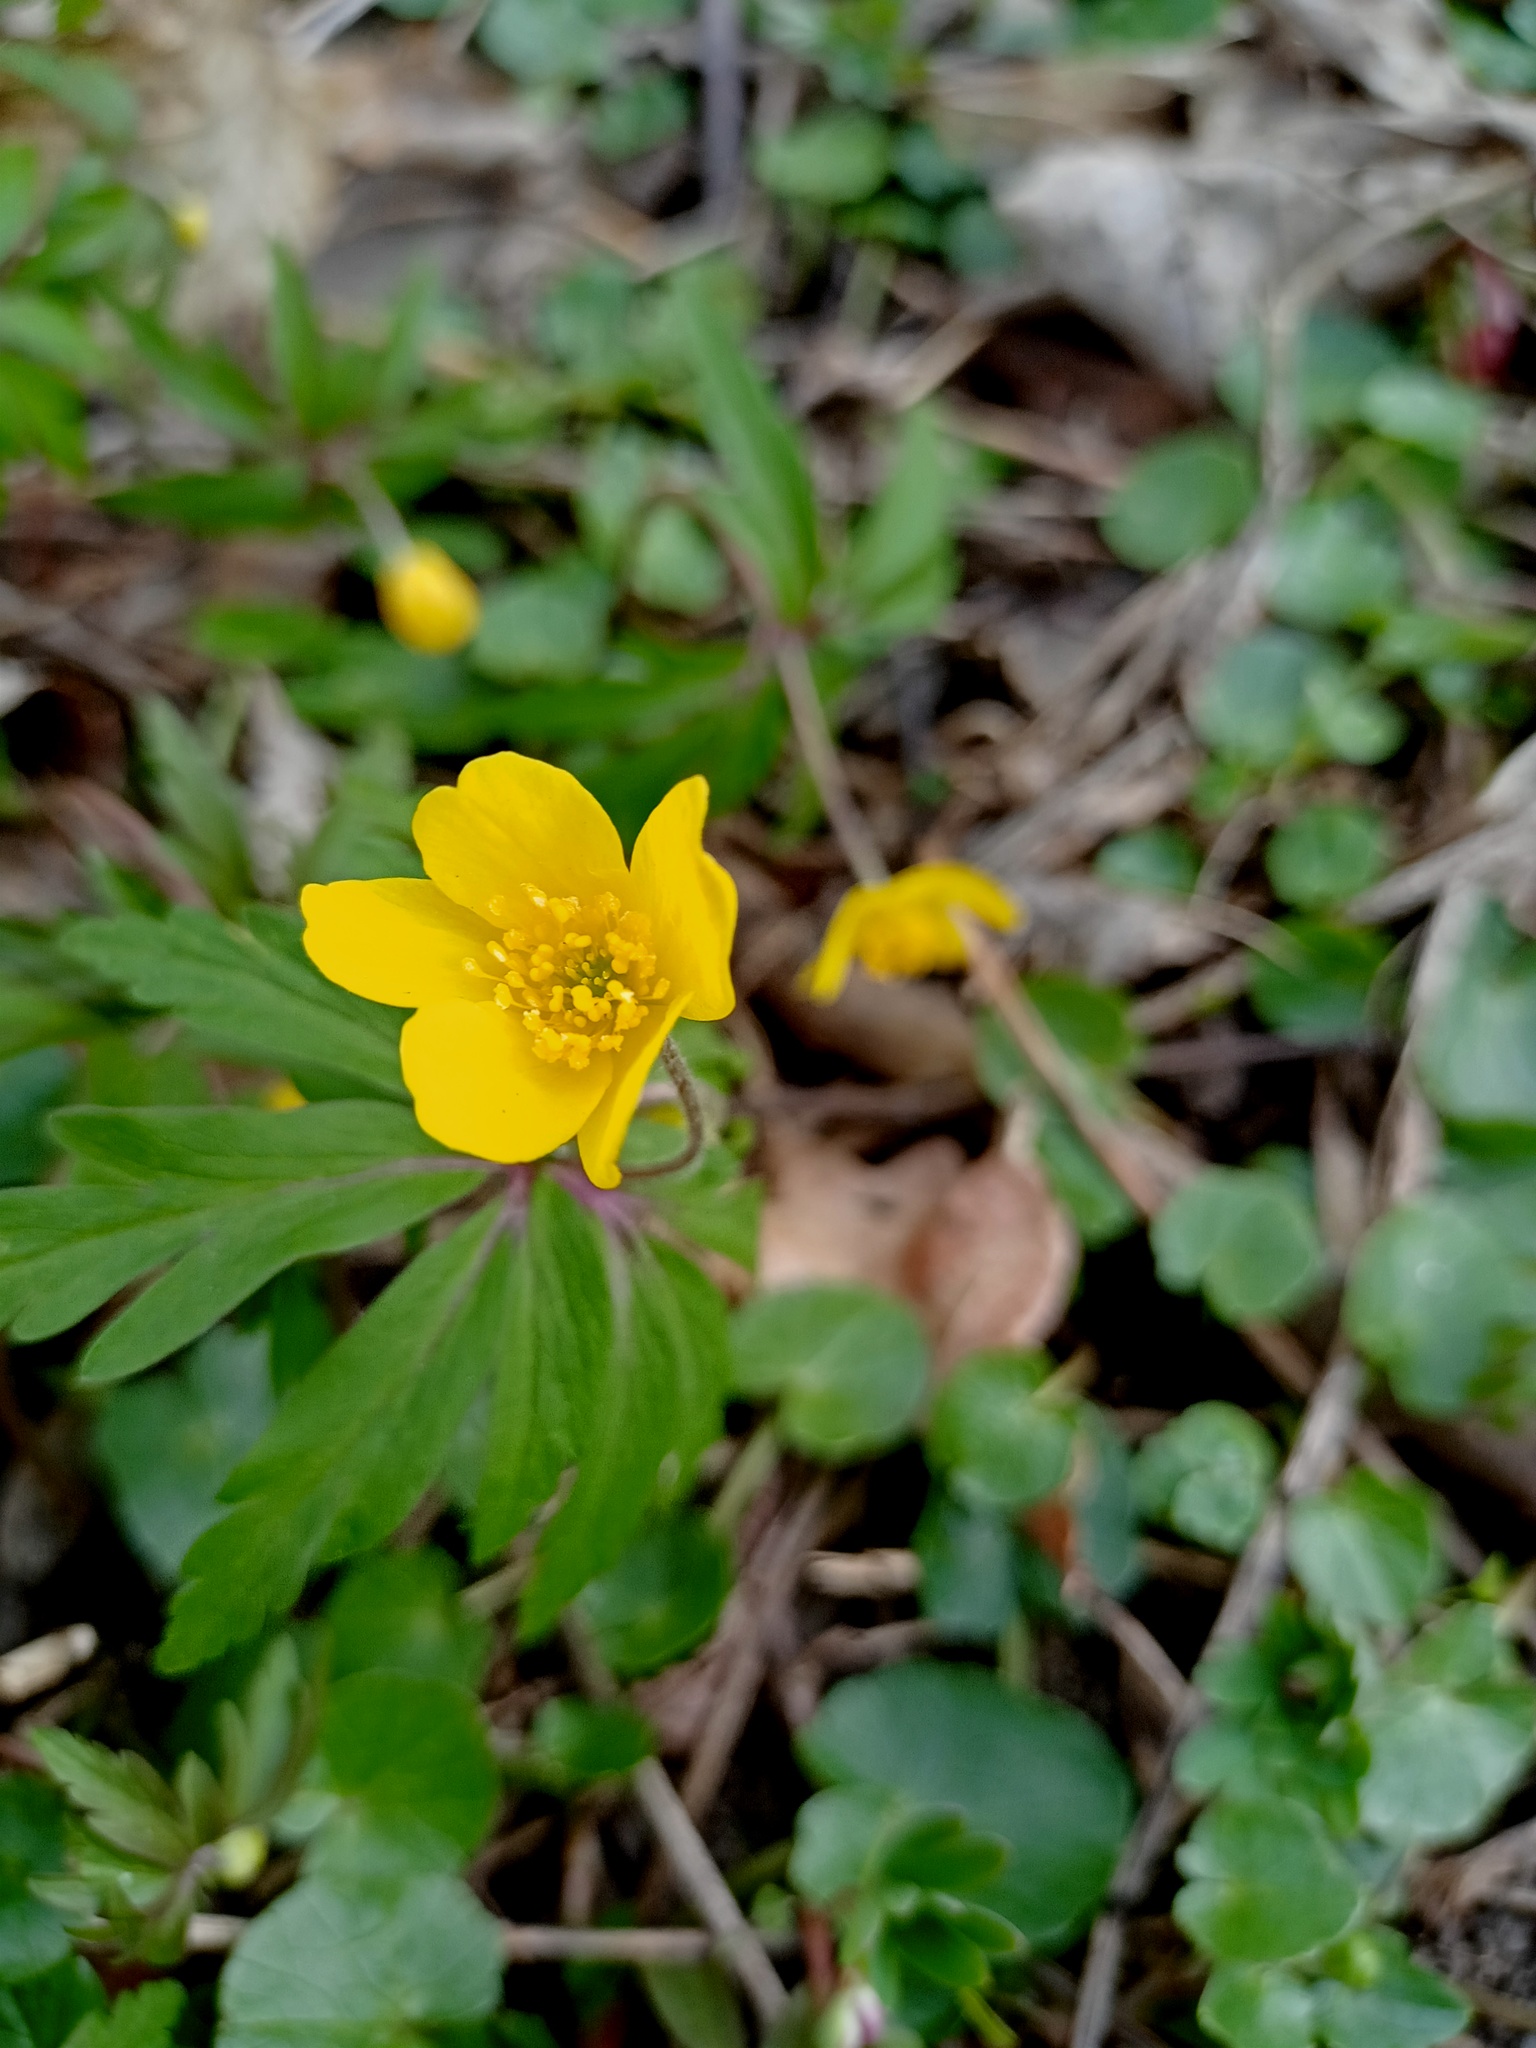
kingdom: Plantae
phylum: Tracheophyta
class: Magnoliopsida
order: Ranunculales
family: Ranunculaceae
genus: Anemone
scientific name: Anemone ranunculoides
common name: Yellow anemone
